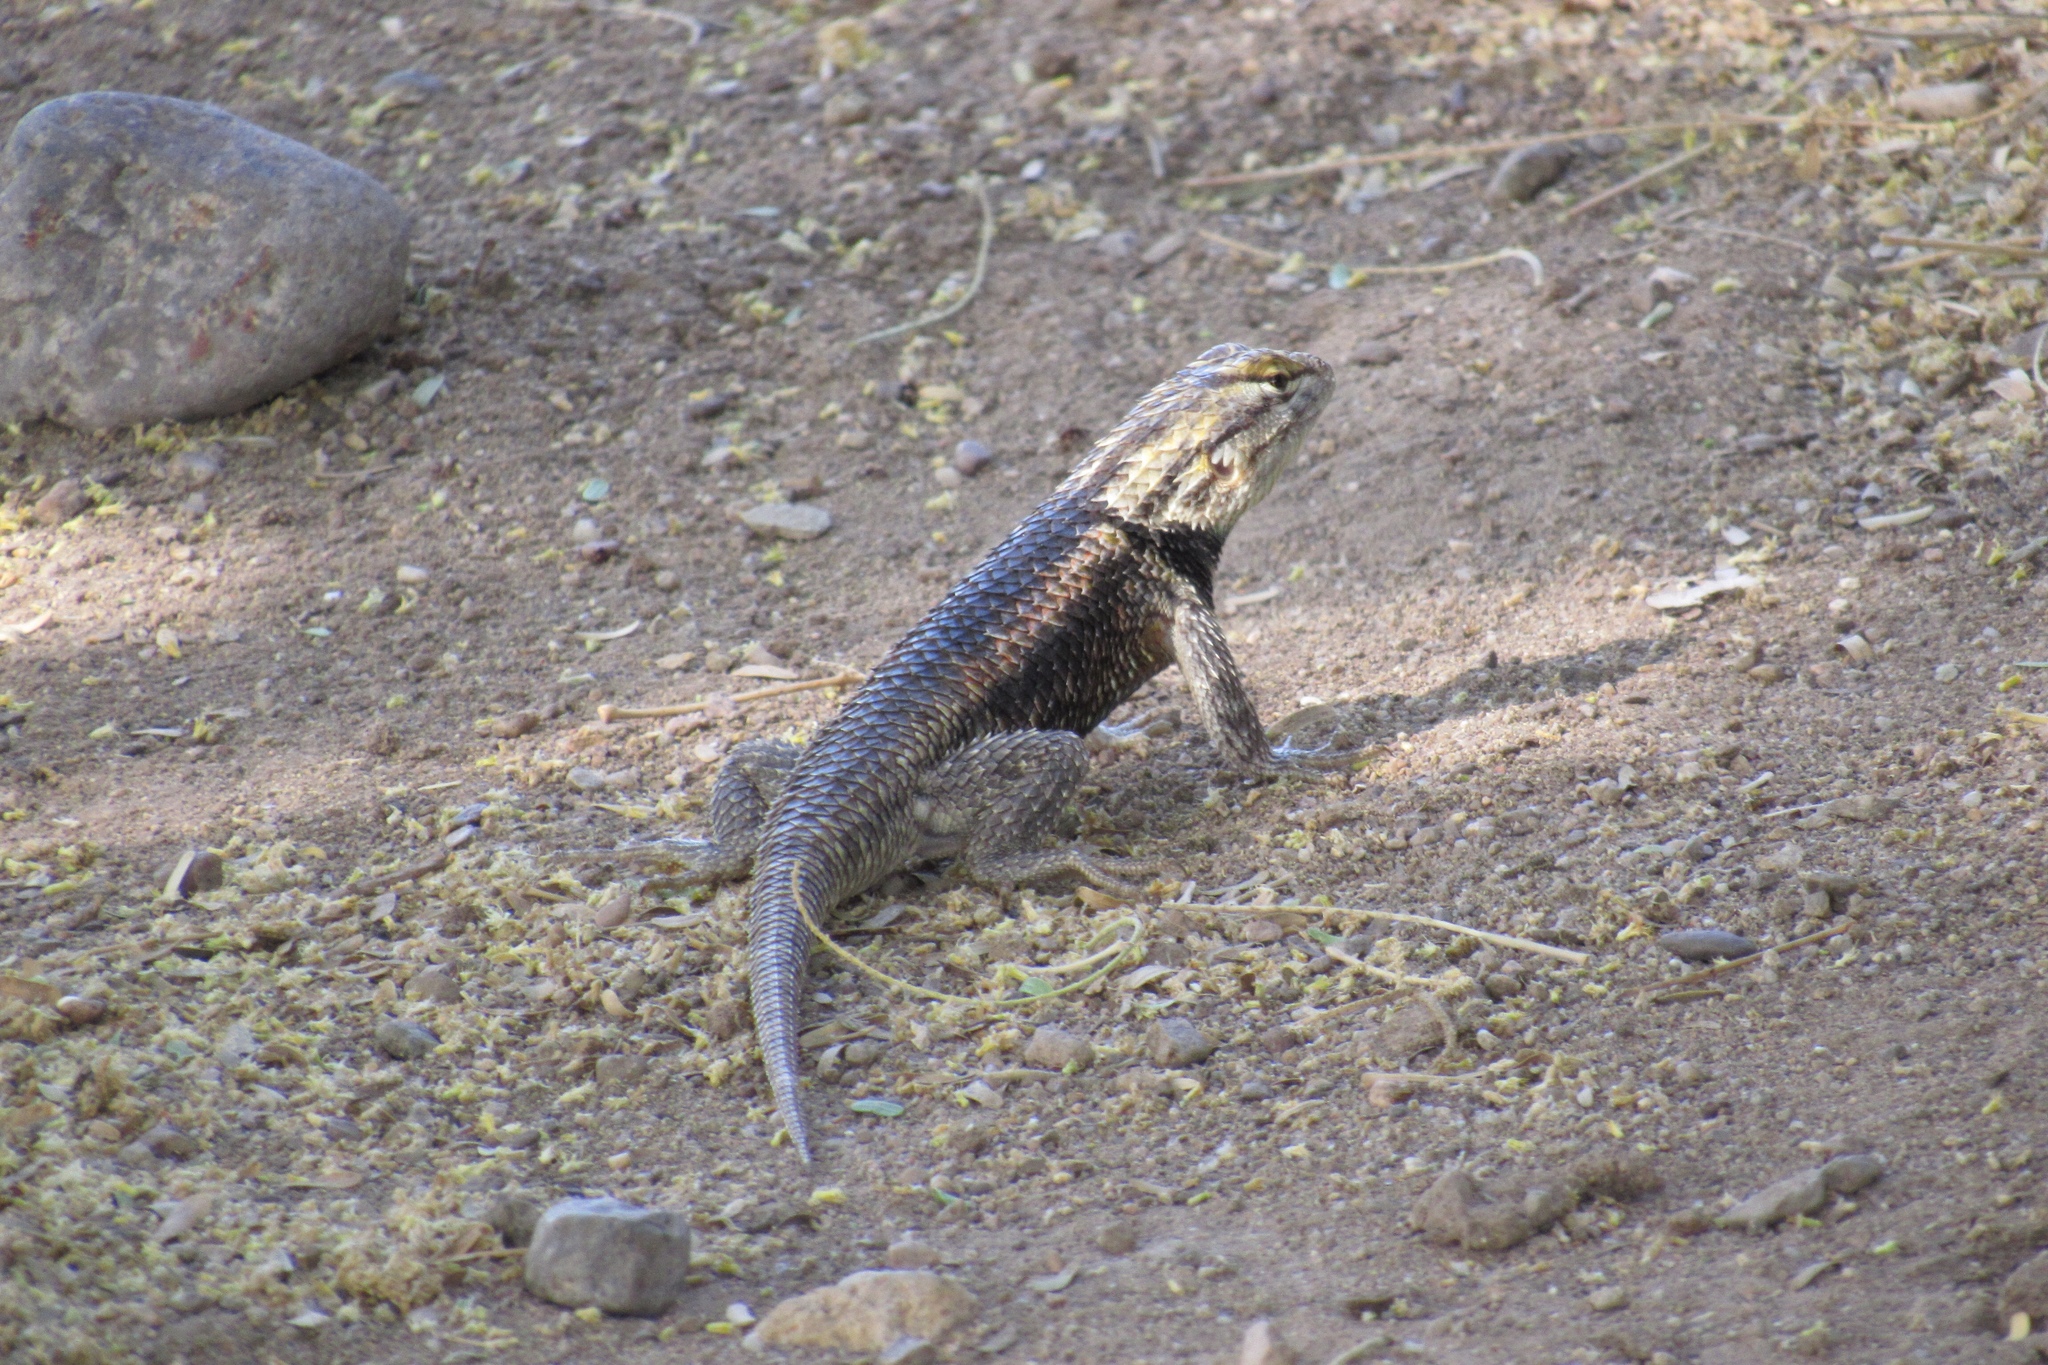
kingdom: Animalia
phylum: Chordata
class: Squamata
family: Phrynosomatidae
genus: Sceloporus
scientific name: Sceloporus magister
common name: Desert spiny lizard
